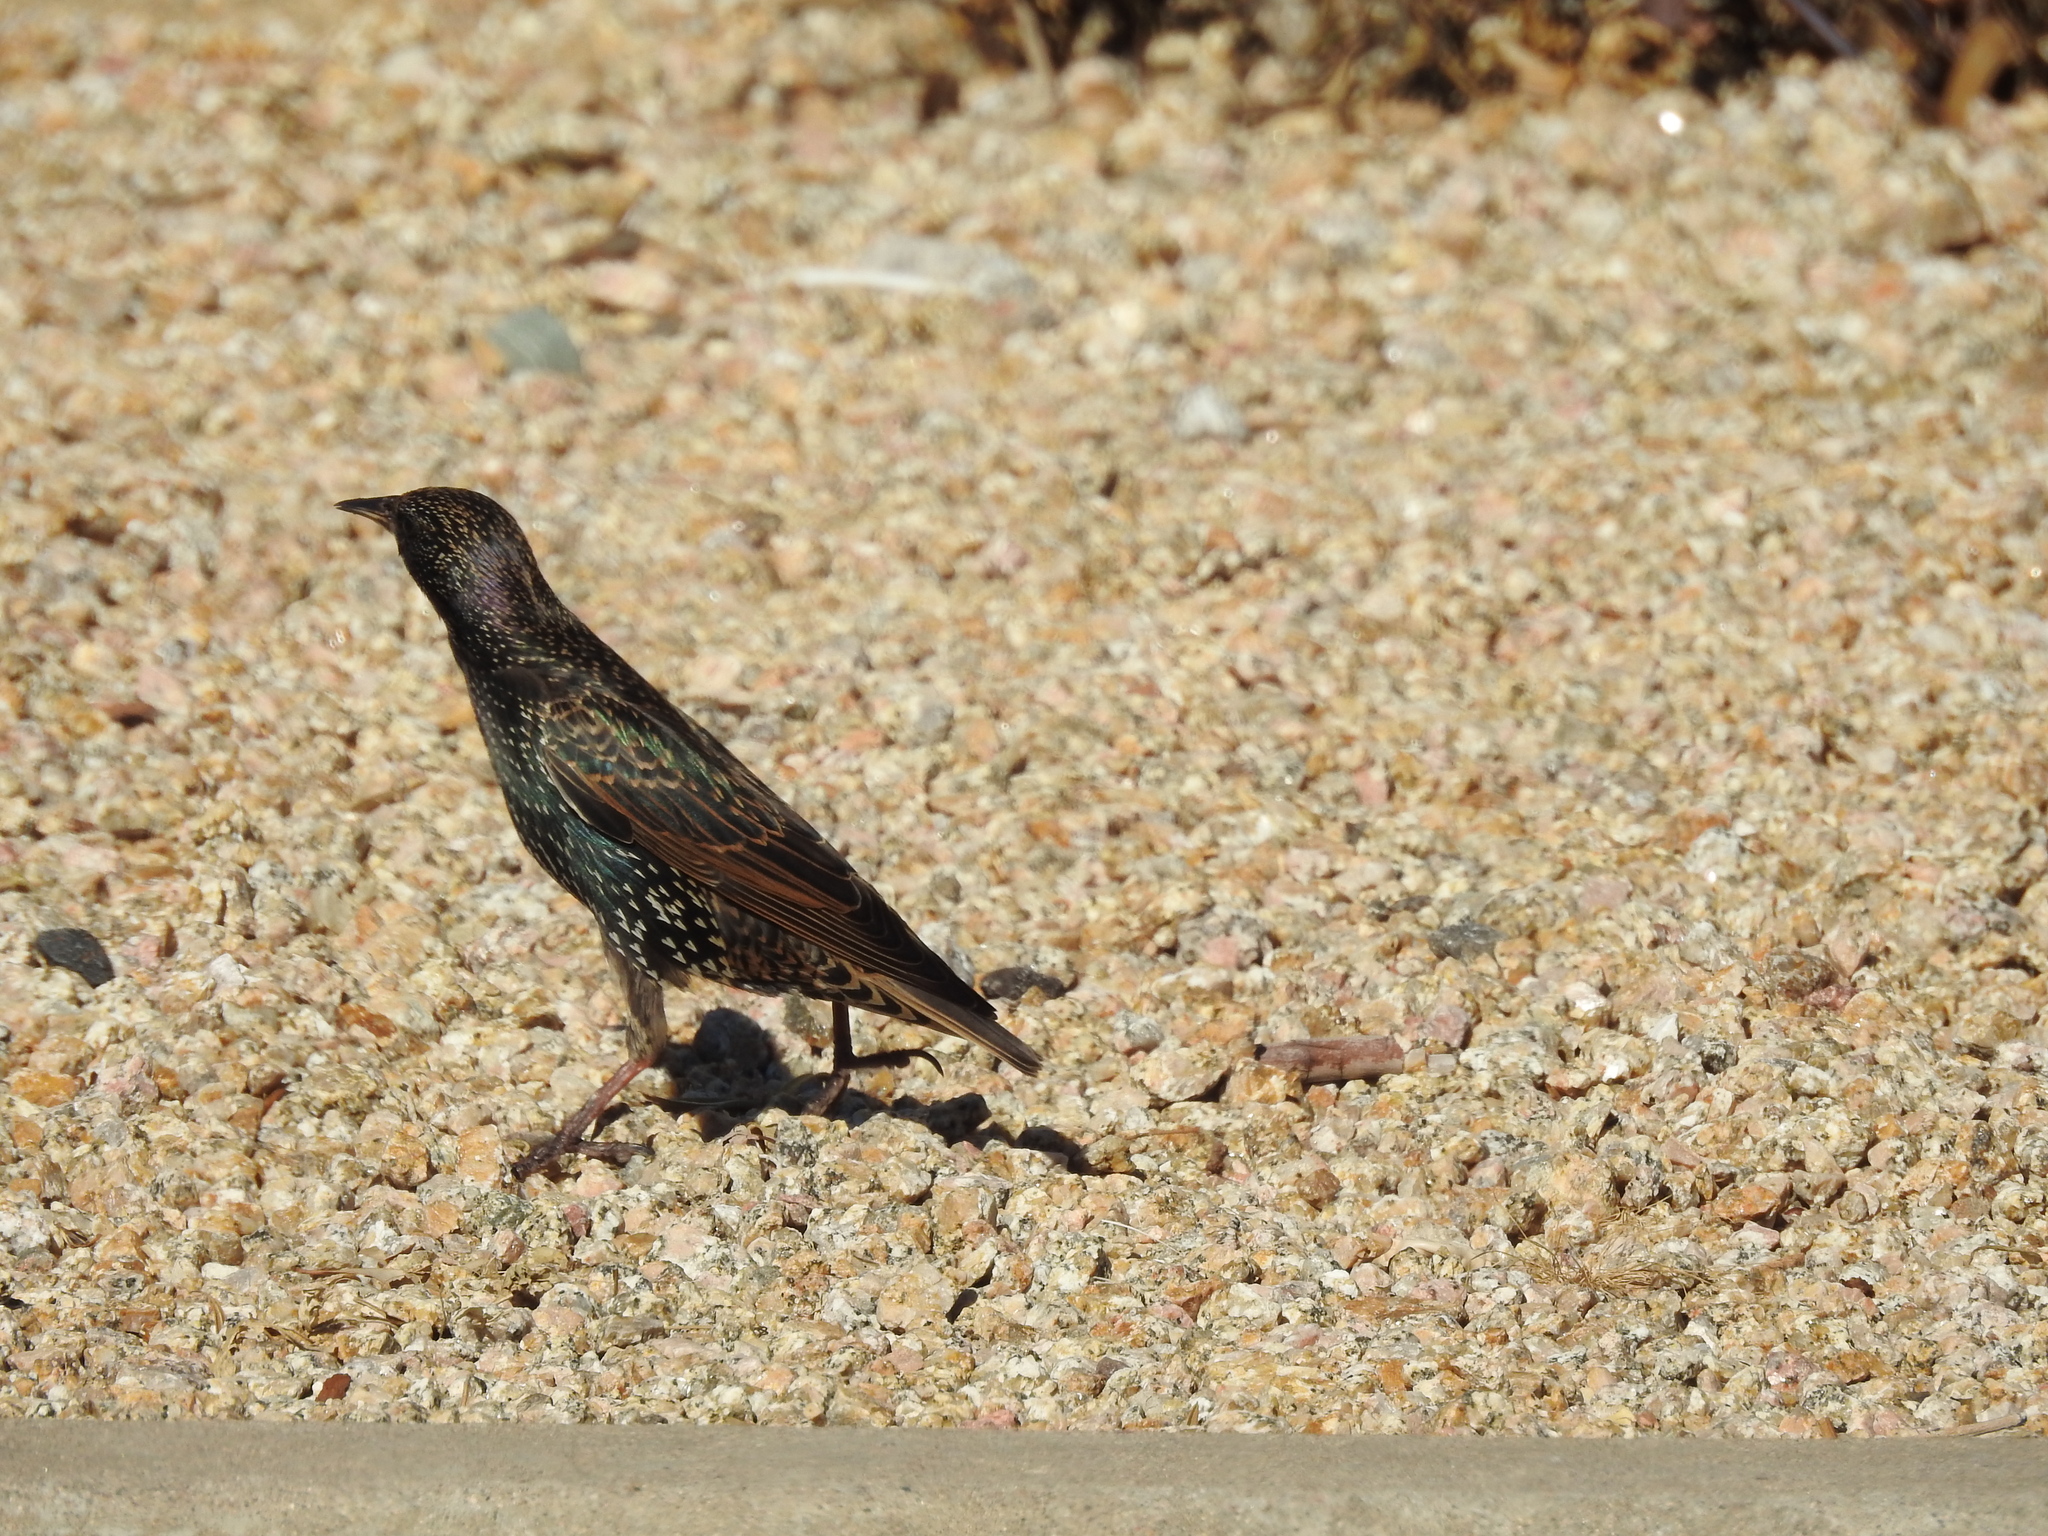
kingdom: Animalia
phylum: Chordata
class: Aves
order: Passeriformes
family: Sturnidae
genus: Sturnus
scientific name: Sturnus vulgaris
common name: Common starling
